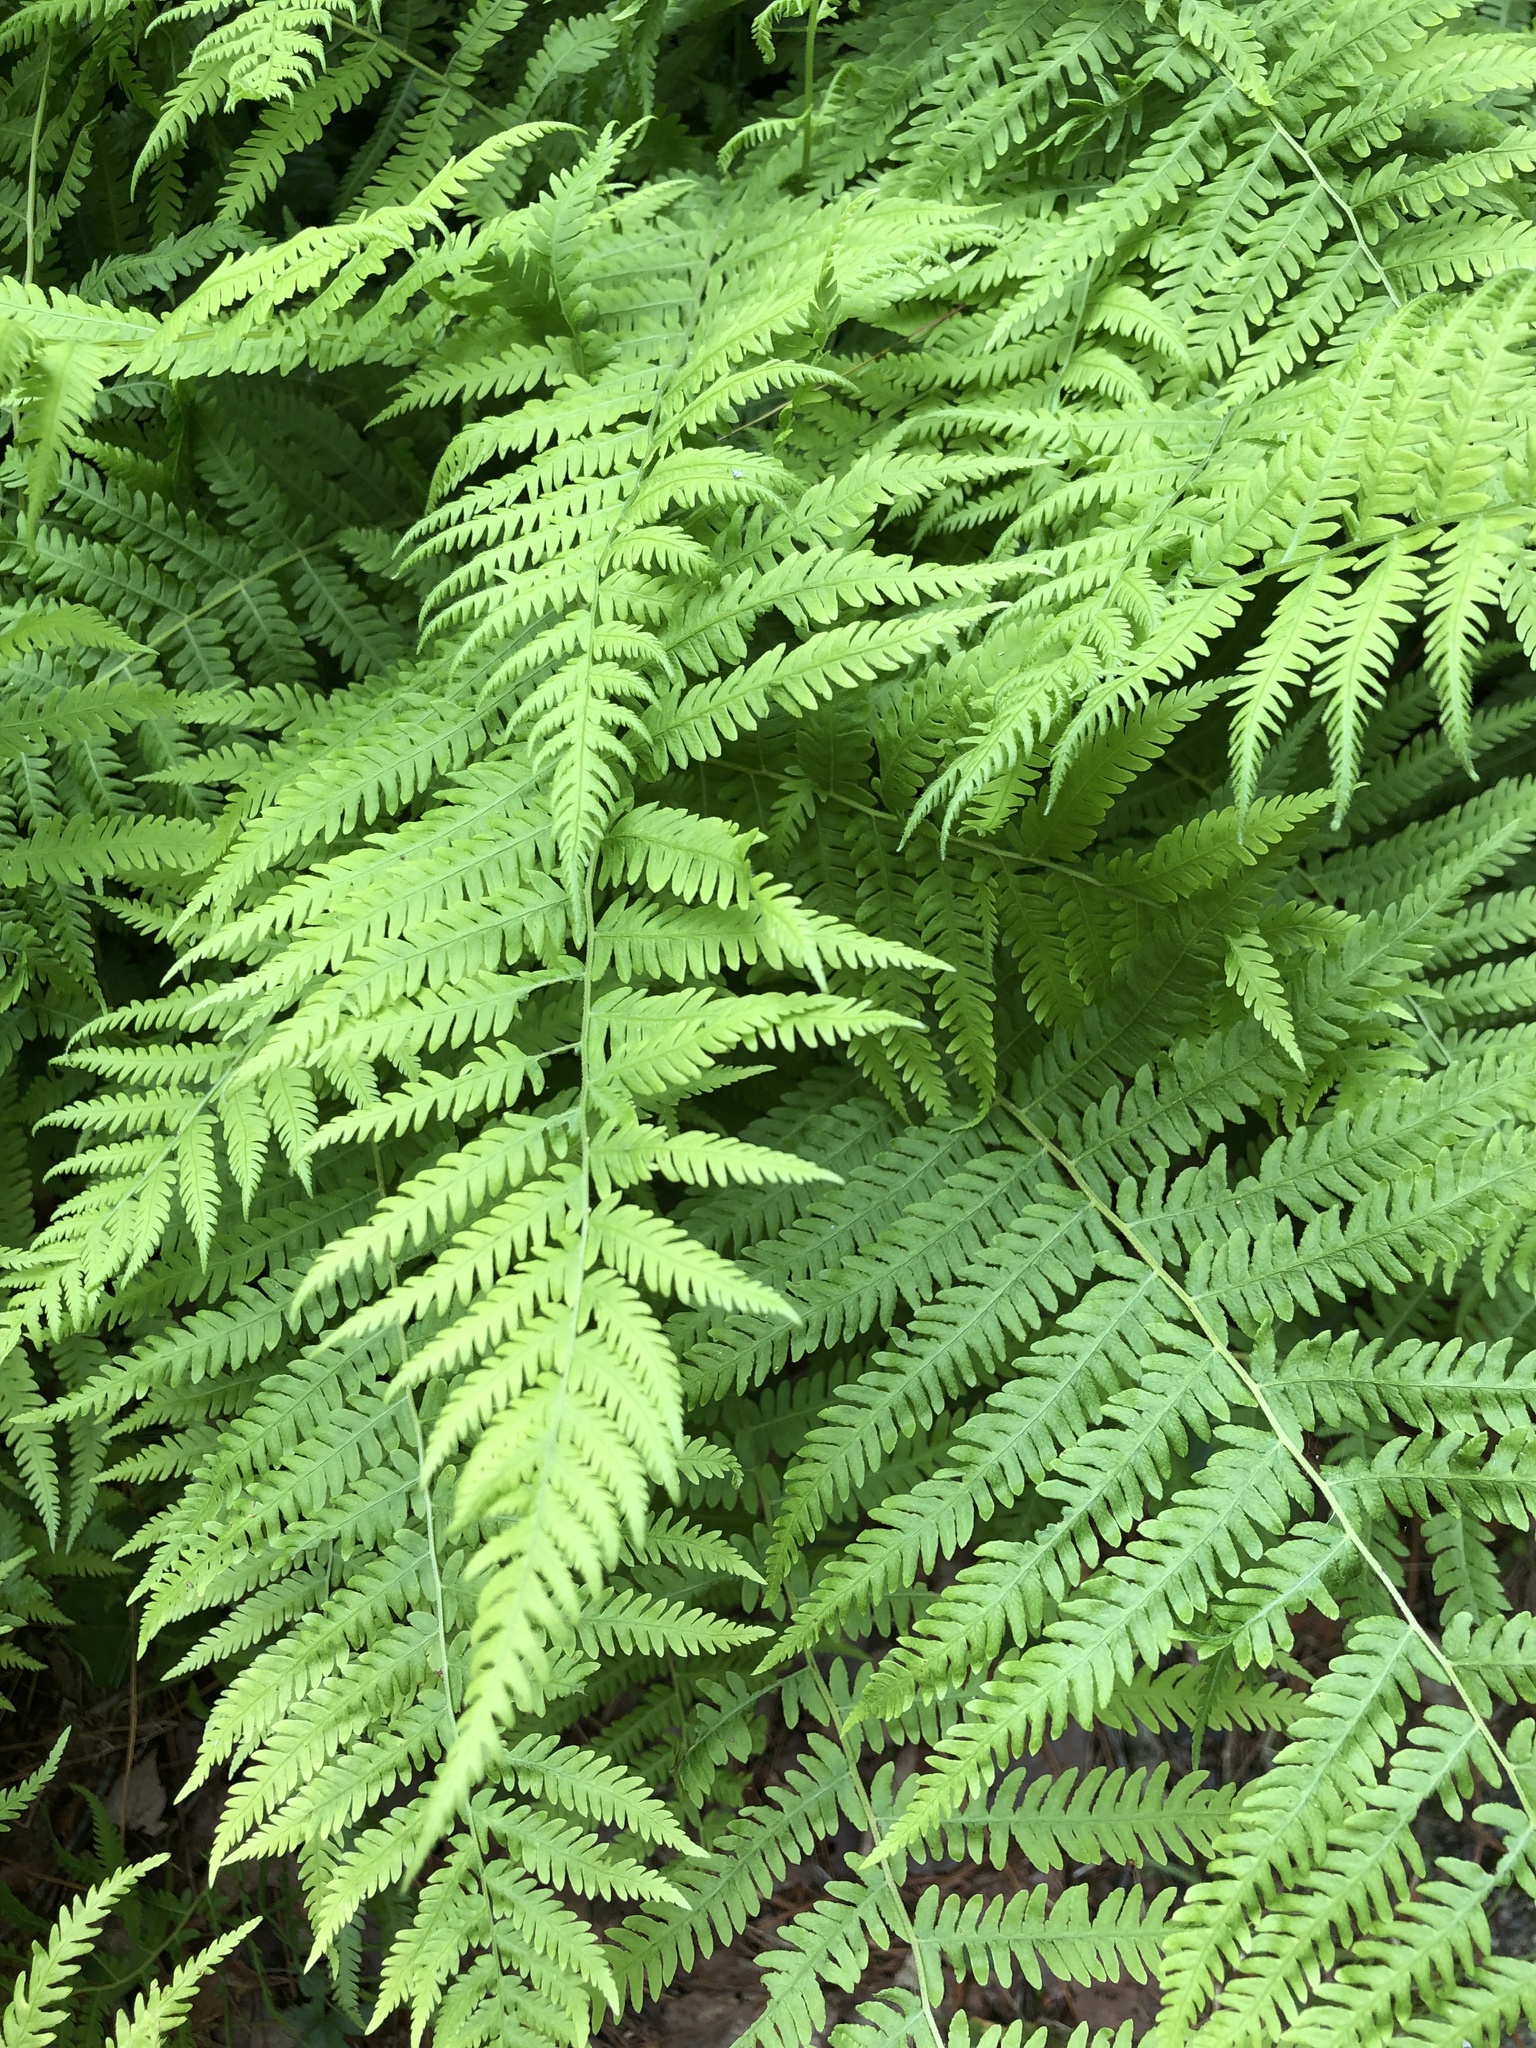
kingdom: Plantae
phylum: Tracheophyta
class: Polypodiopsida
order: Polypodiales
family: Thelypteridaceae
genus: Amauropelta
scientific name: Amauropelta noveboracensis
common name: New york fern
